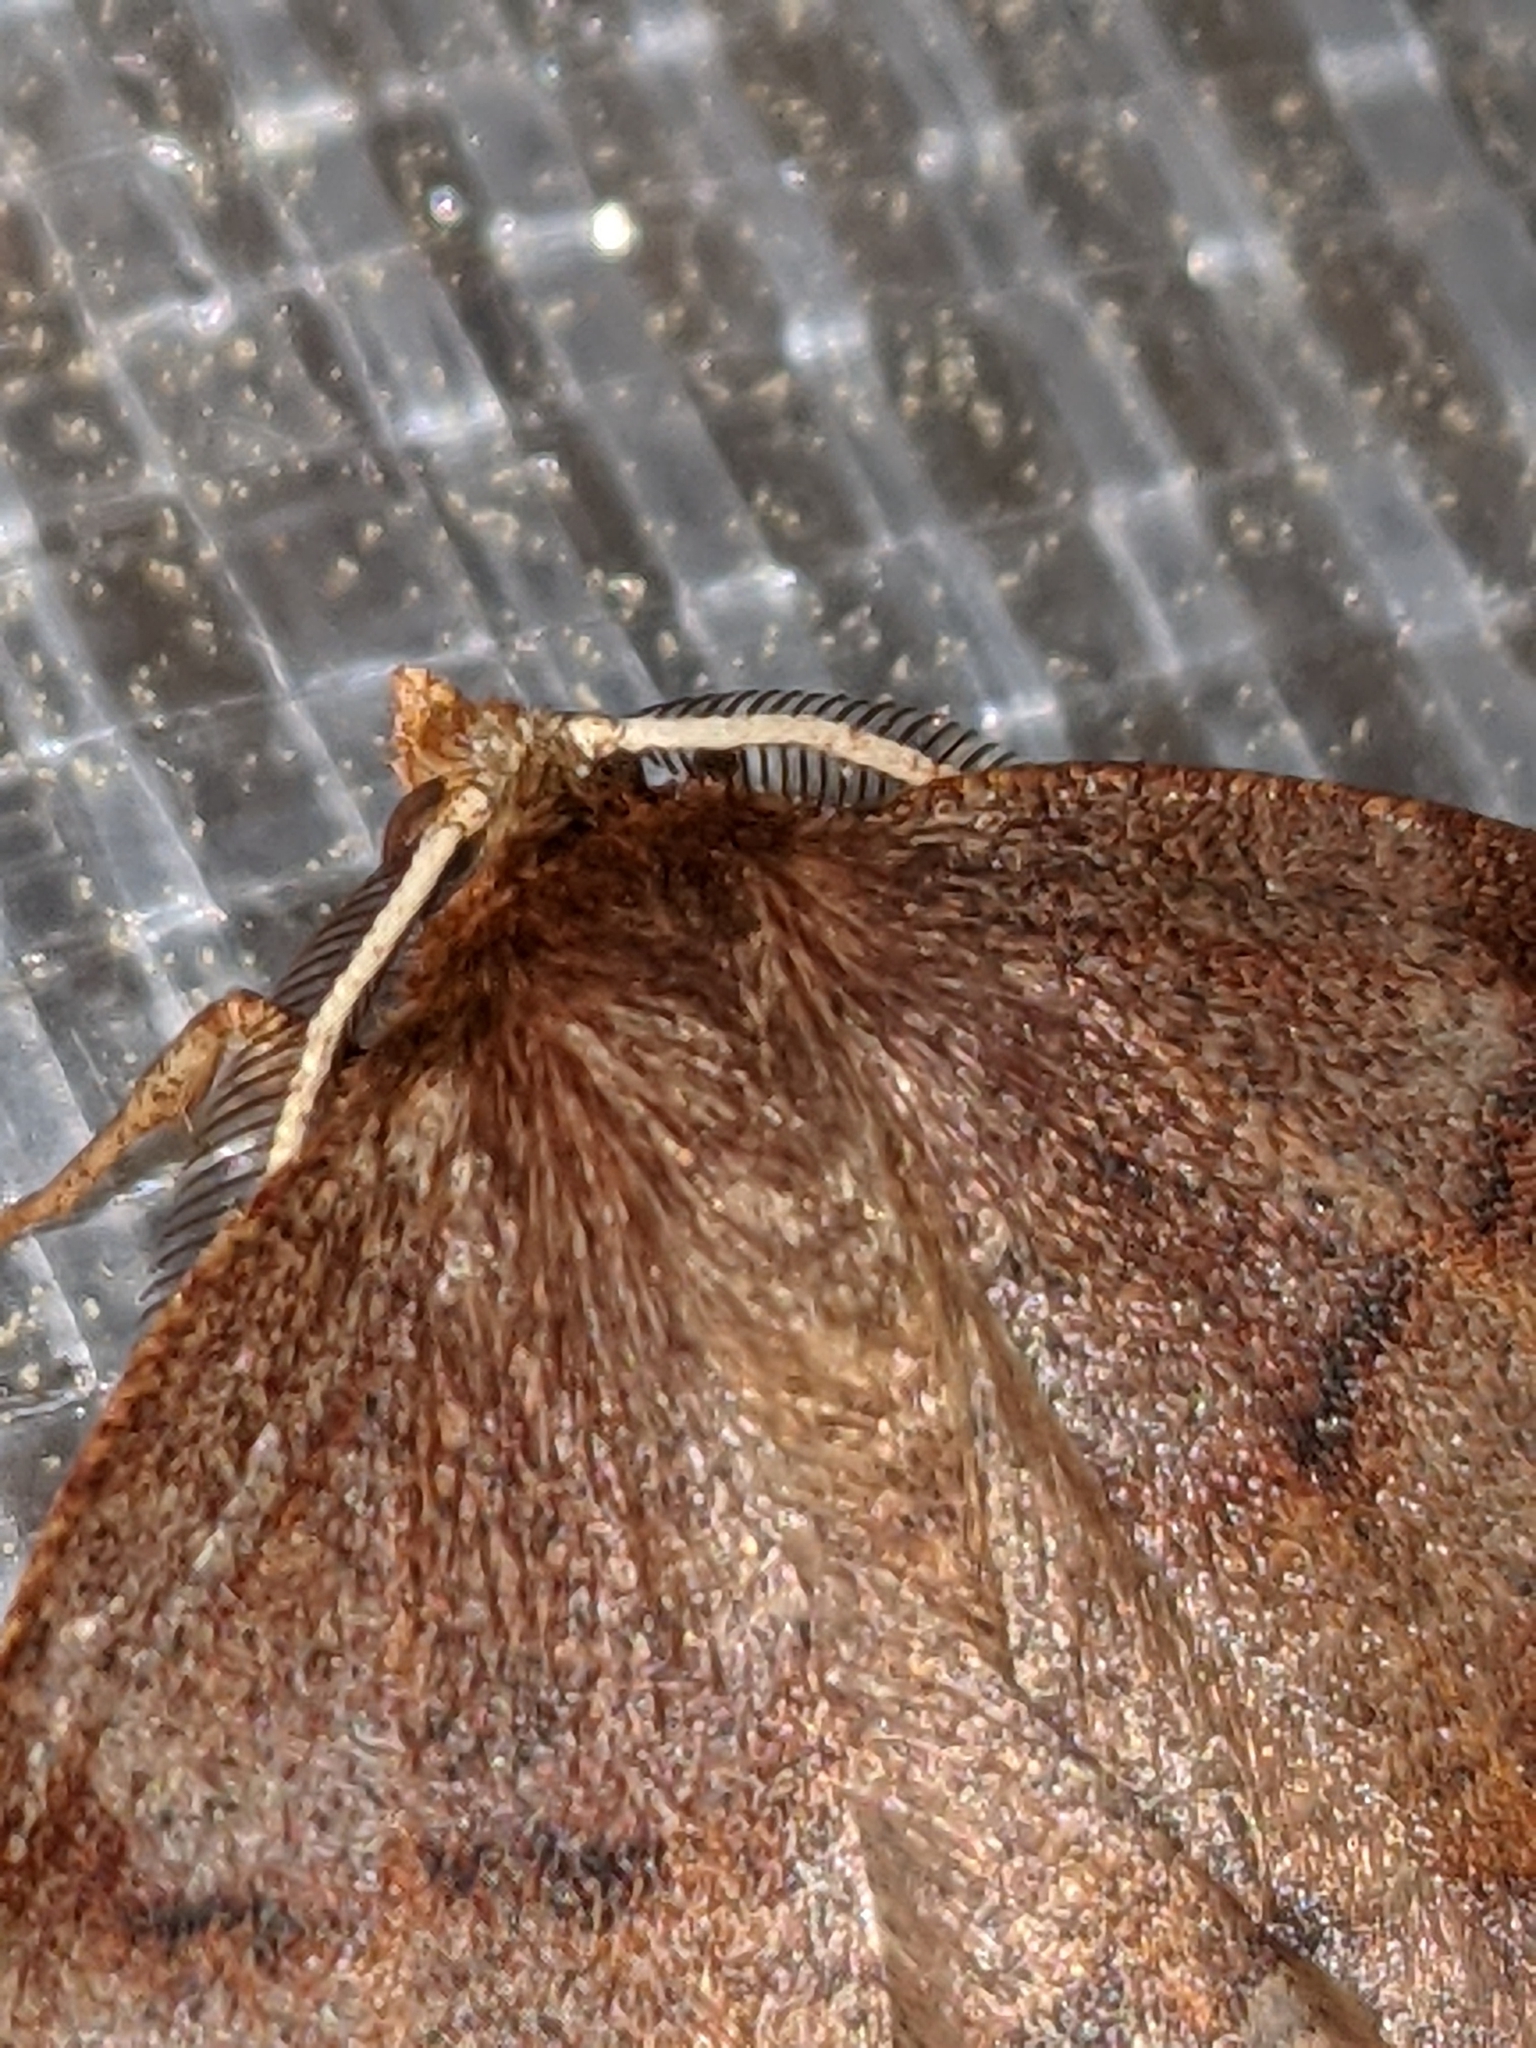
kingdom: Animalia
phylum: Arthropoda
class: Insecta
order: Lepidoptera
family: Geometridae
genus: Metarranthis
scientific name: Metarranthis duaria
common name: Ruddy metarranthis moth
